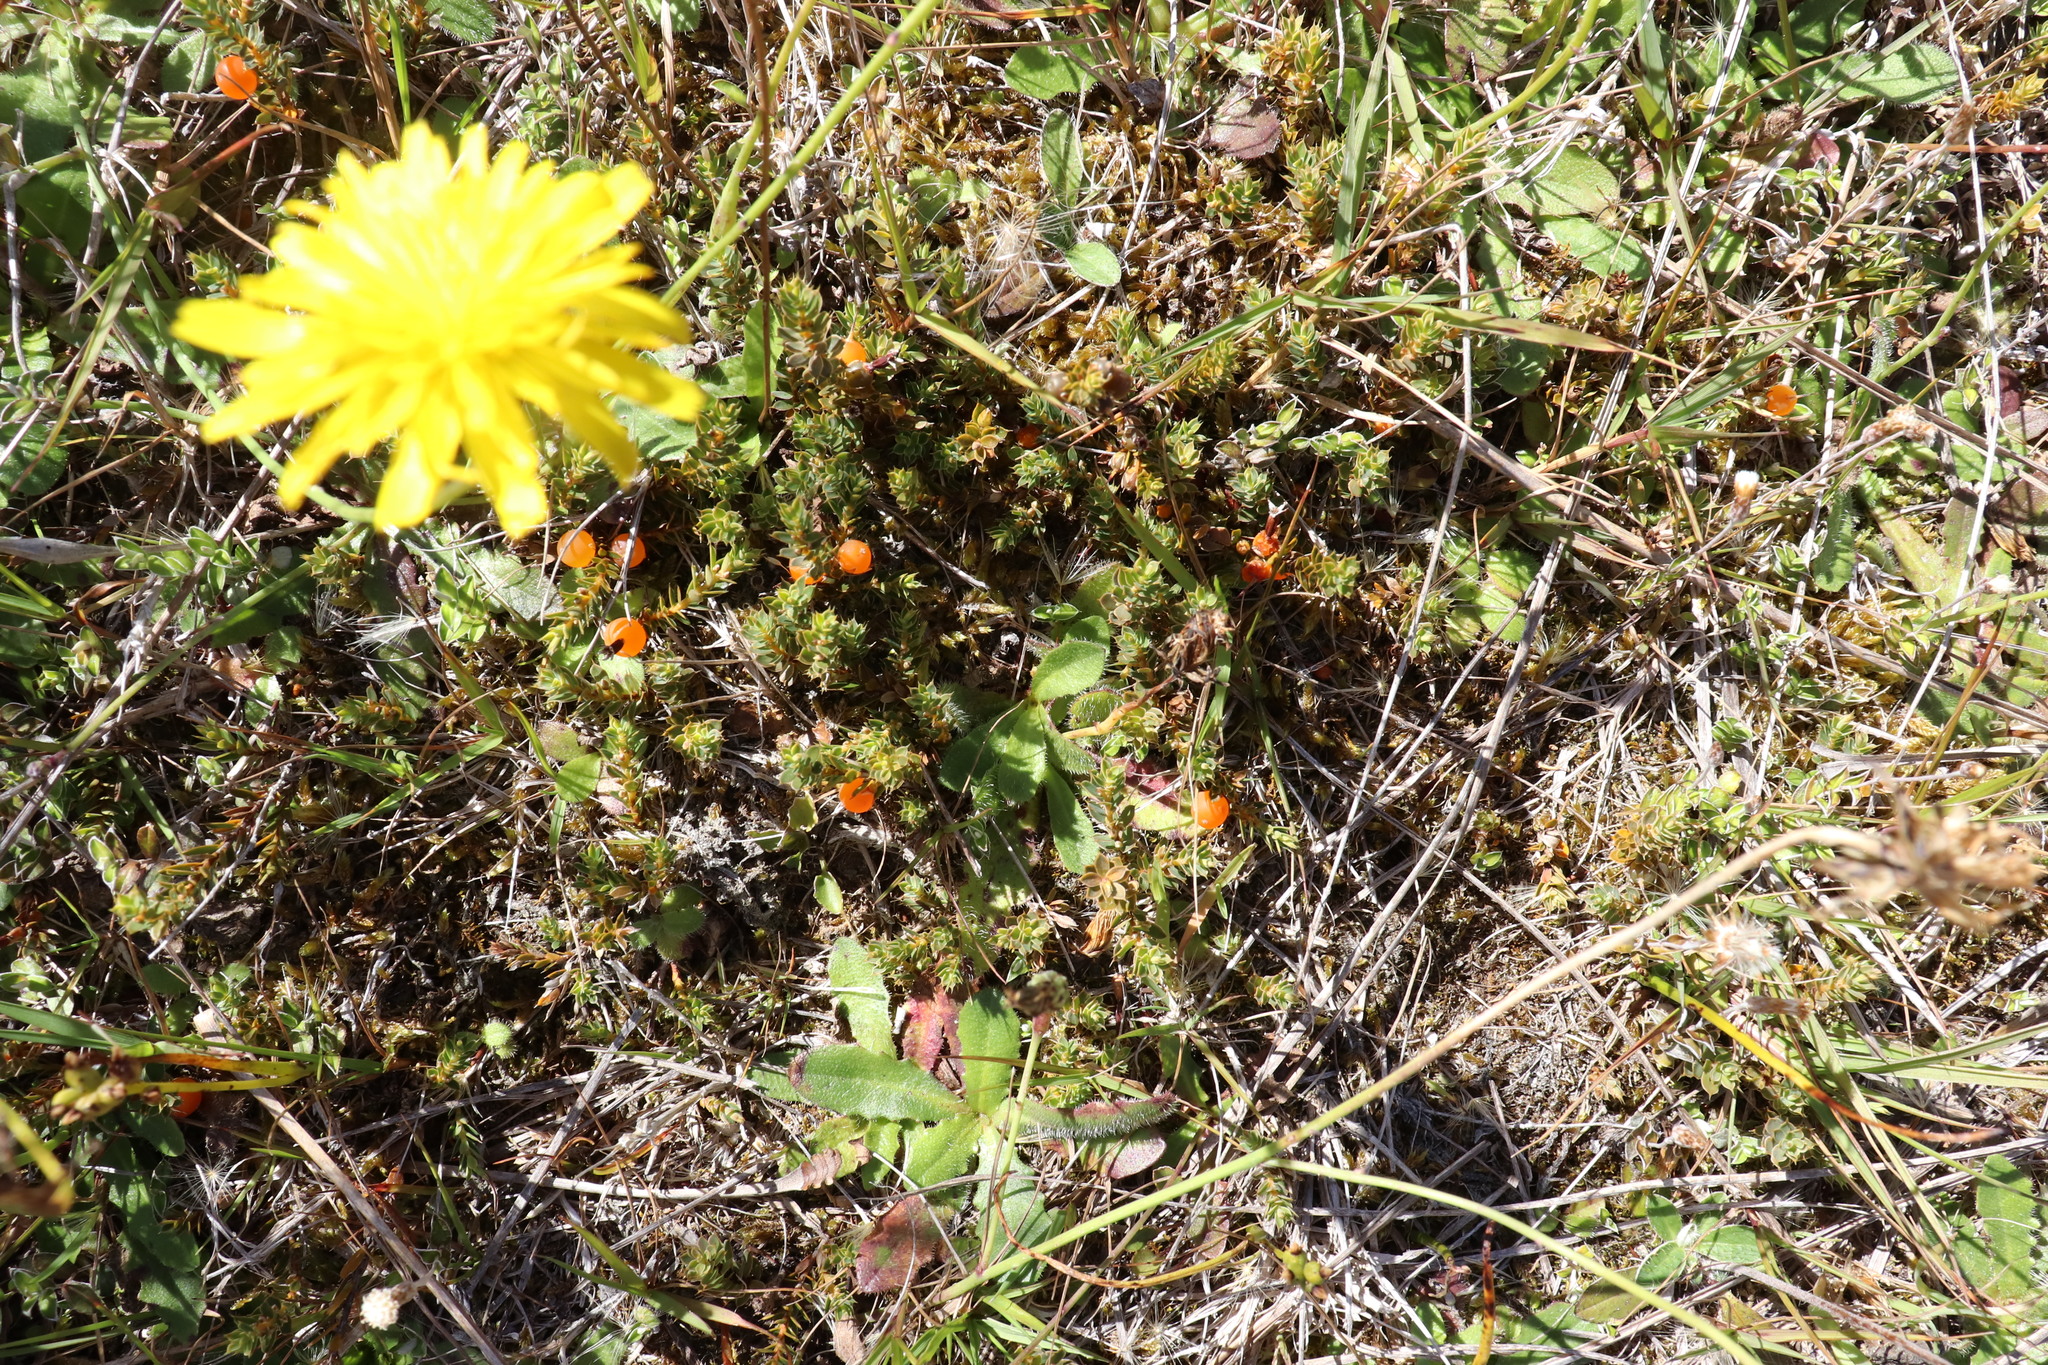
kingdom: Plantae
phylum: Tracheophyta
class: Magnoliopsida
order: Ericales
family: Ericaceae
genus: Styphelia
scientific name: Styphelia nesophila
